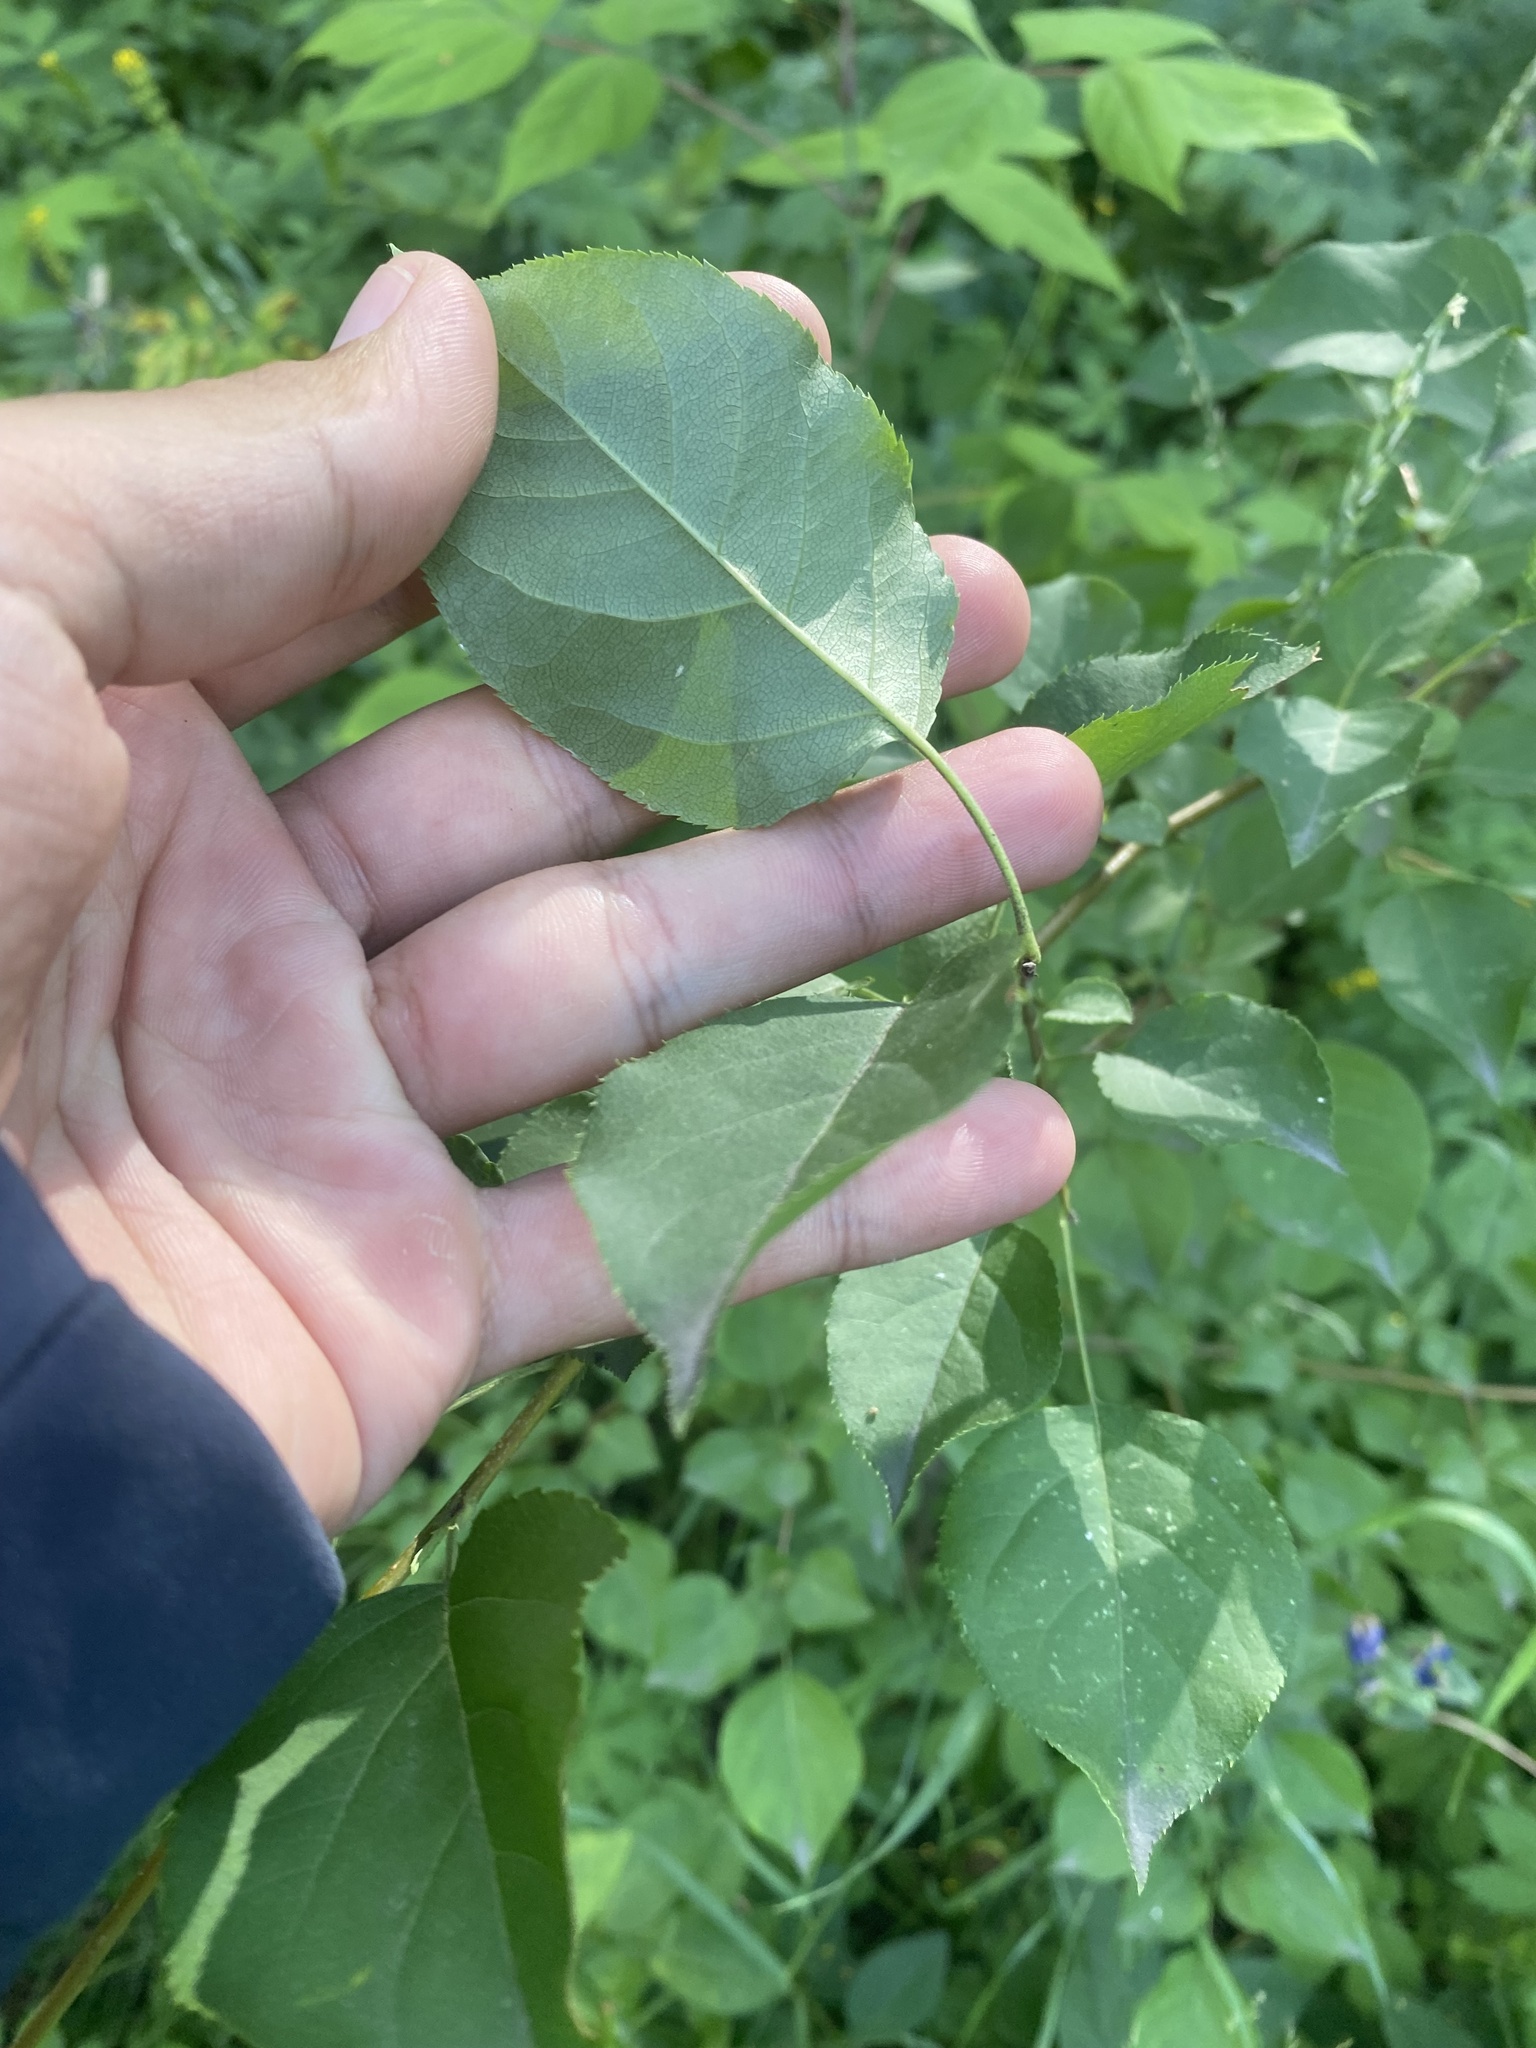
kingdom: Plantae
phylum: Tracheophyta
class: Magnoliopsida
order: Rosales
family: Rosaceae
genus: Malus
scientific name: Malus baccata
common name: Siberian crab
